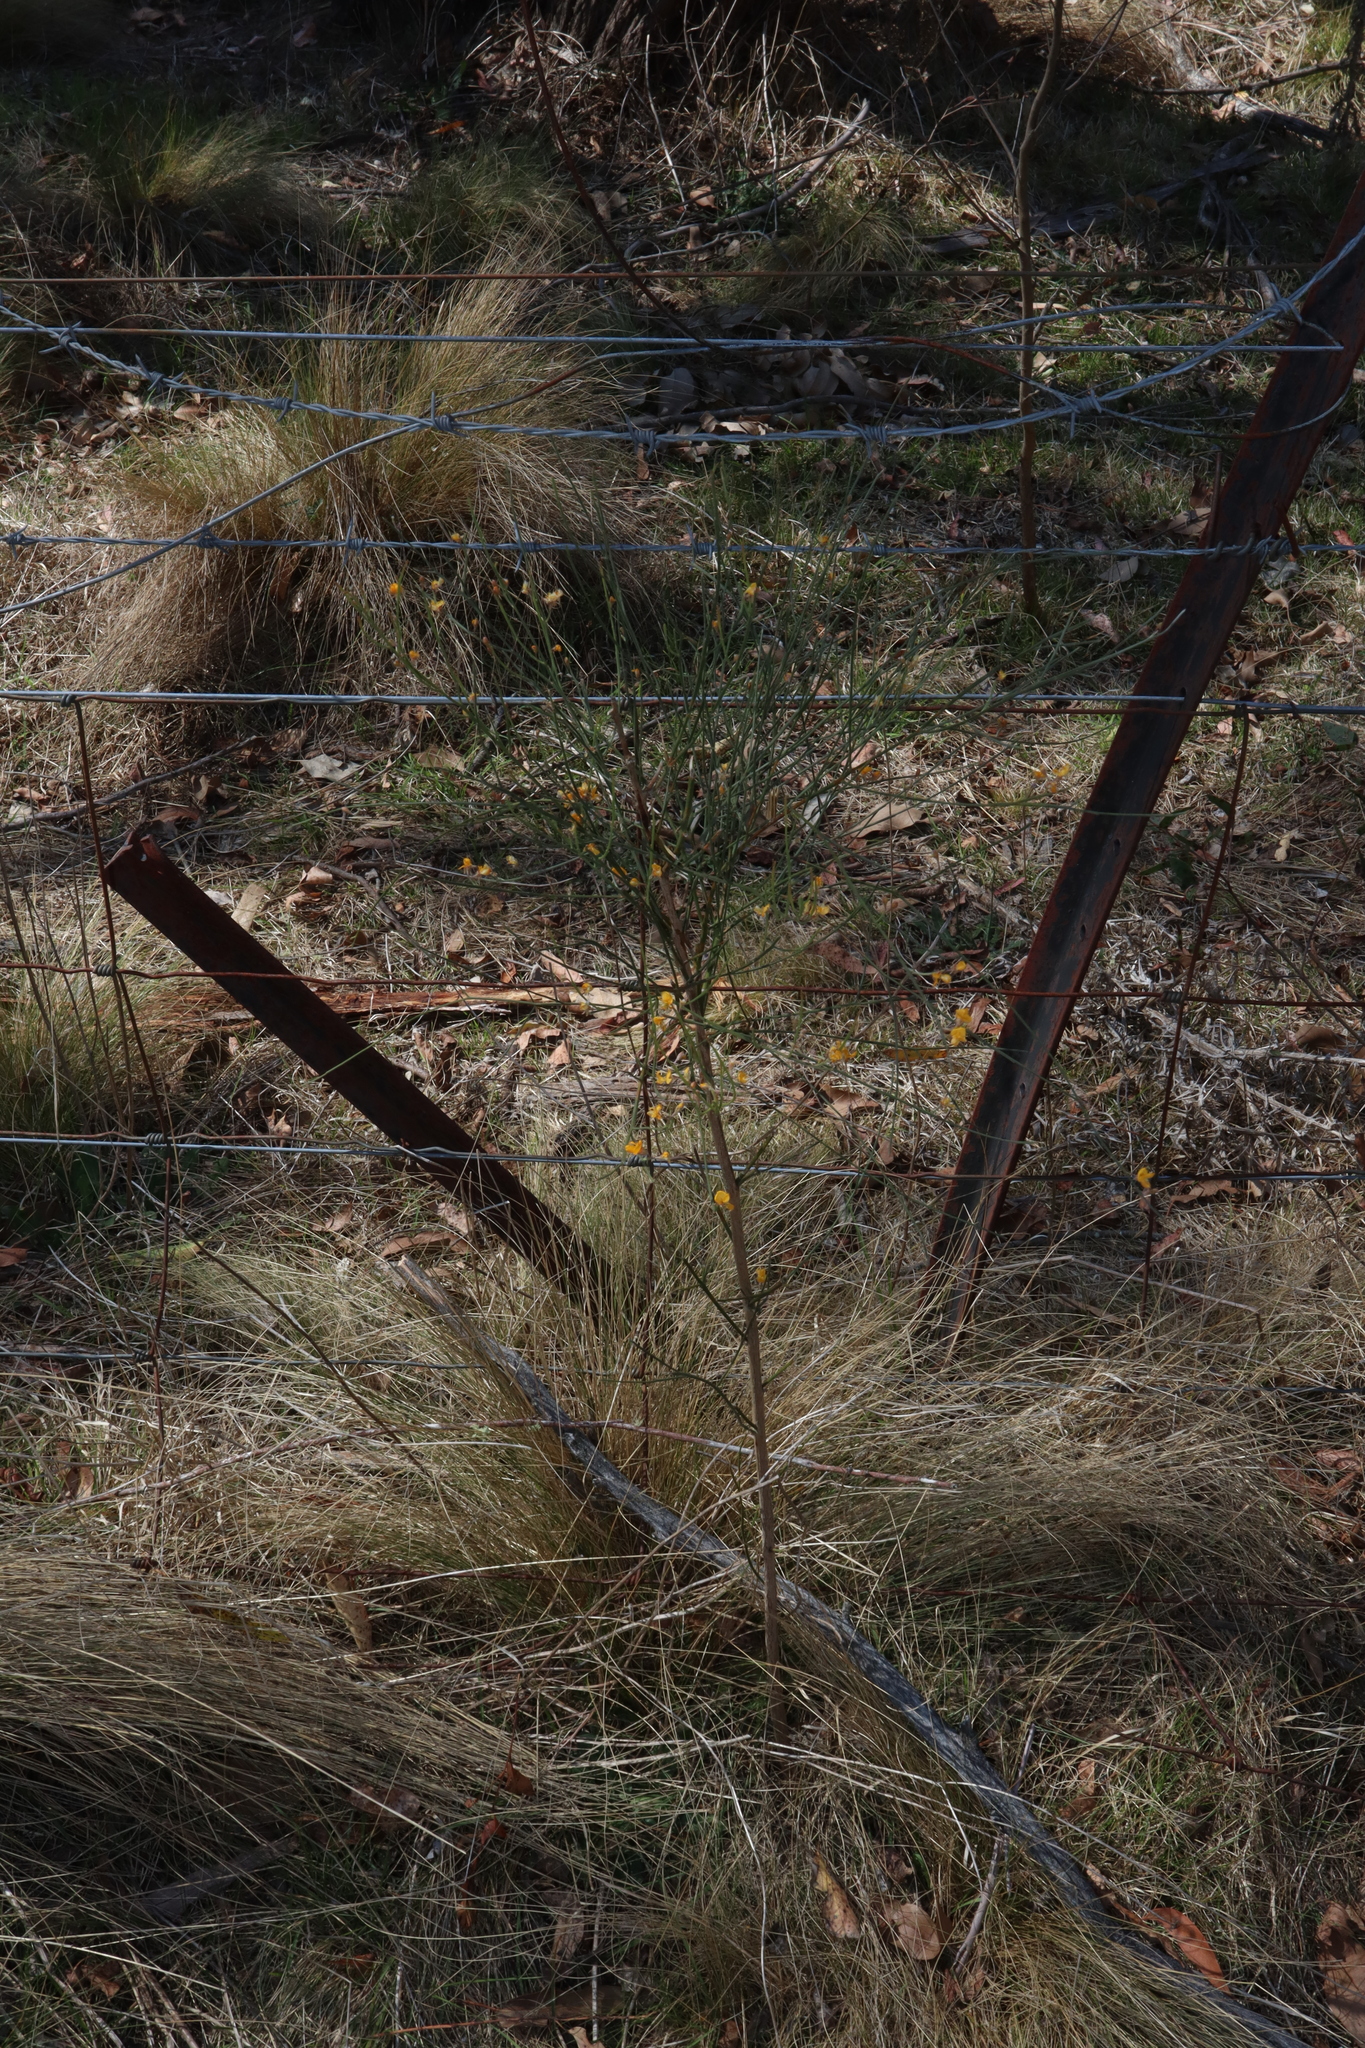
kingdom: Plantae
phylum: Tracheophyta
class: Magnoliopsida
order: Fabales
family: Fabaceae
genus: Jacksonia
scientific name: Jacksonia scoparia
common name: Dogwood
